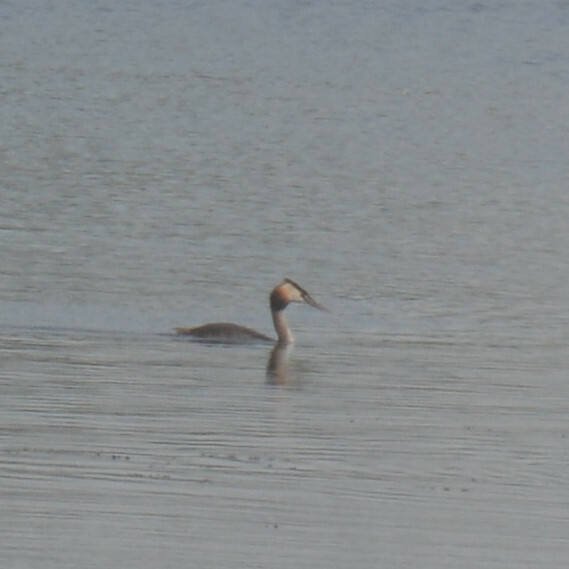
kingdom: Animalia
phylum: Chordata
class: Aves
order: Podicipediformes
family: Podicipedidae
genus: Podiceps
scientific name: Podiceps cristatus
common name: Great crested grebe
